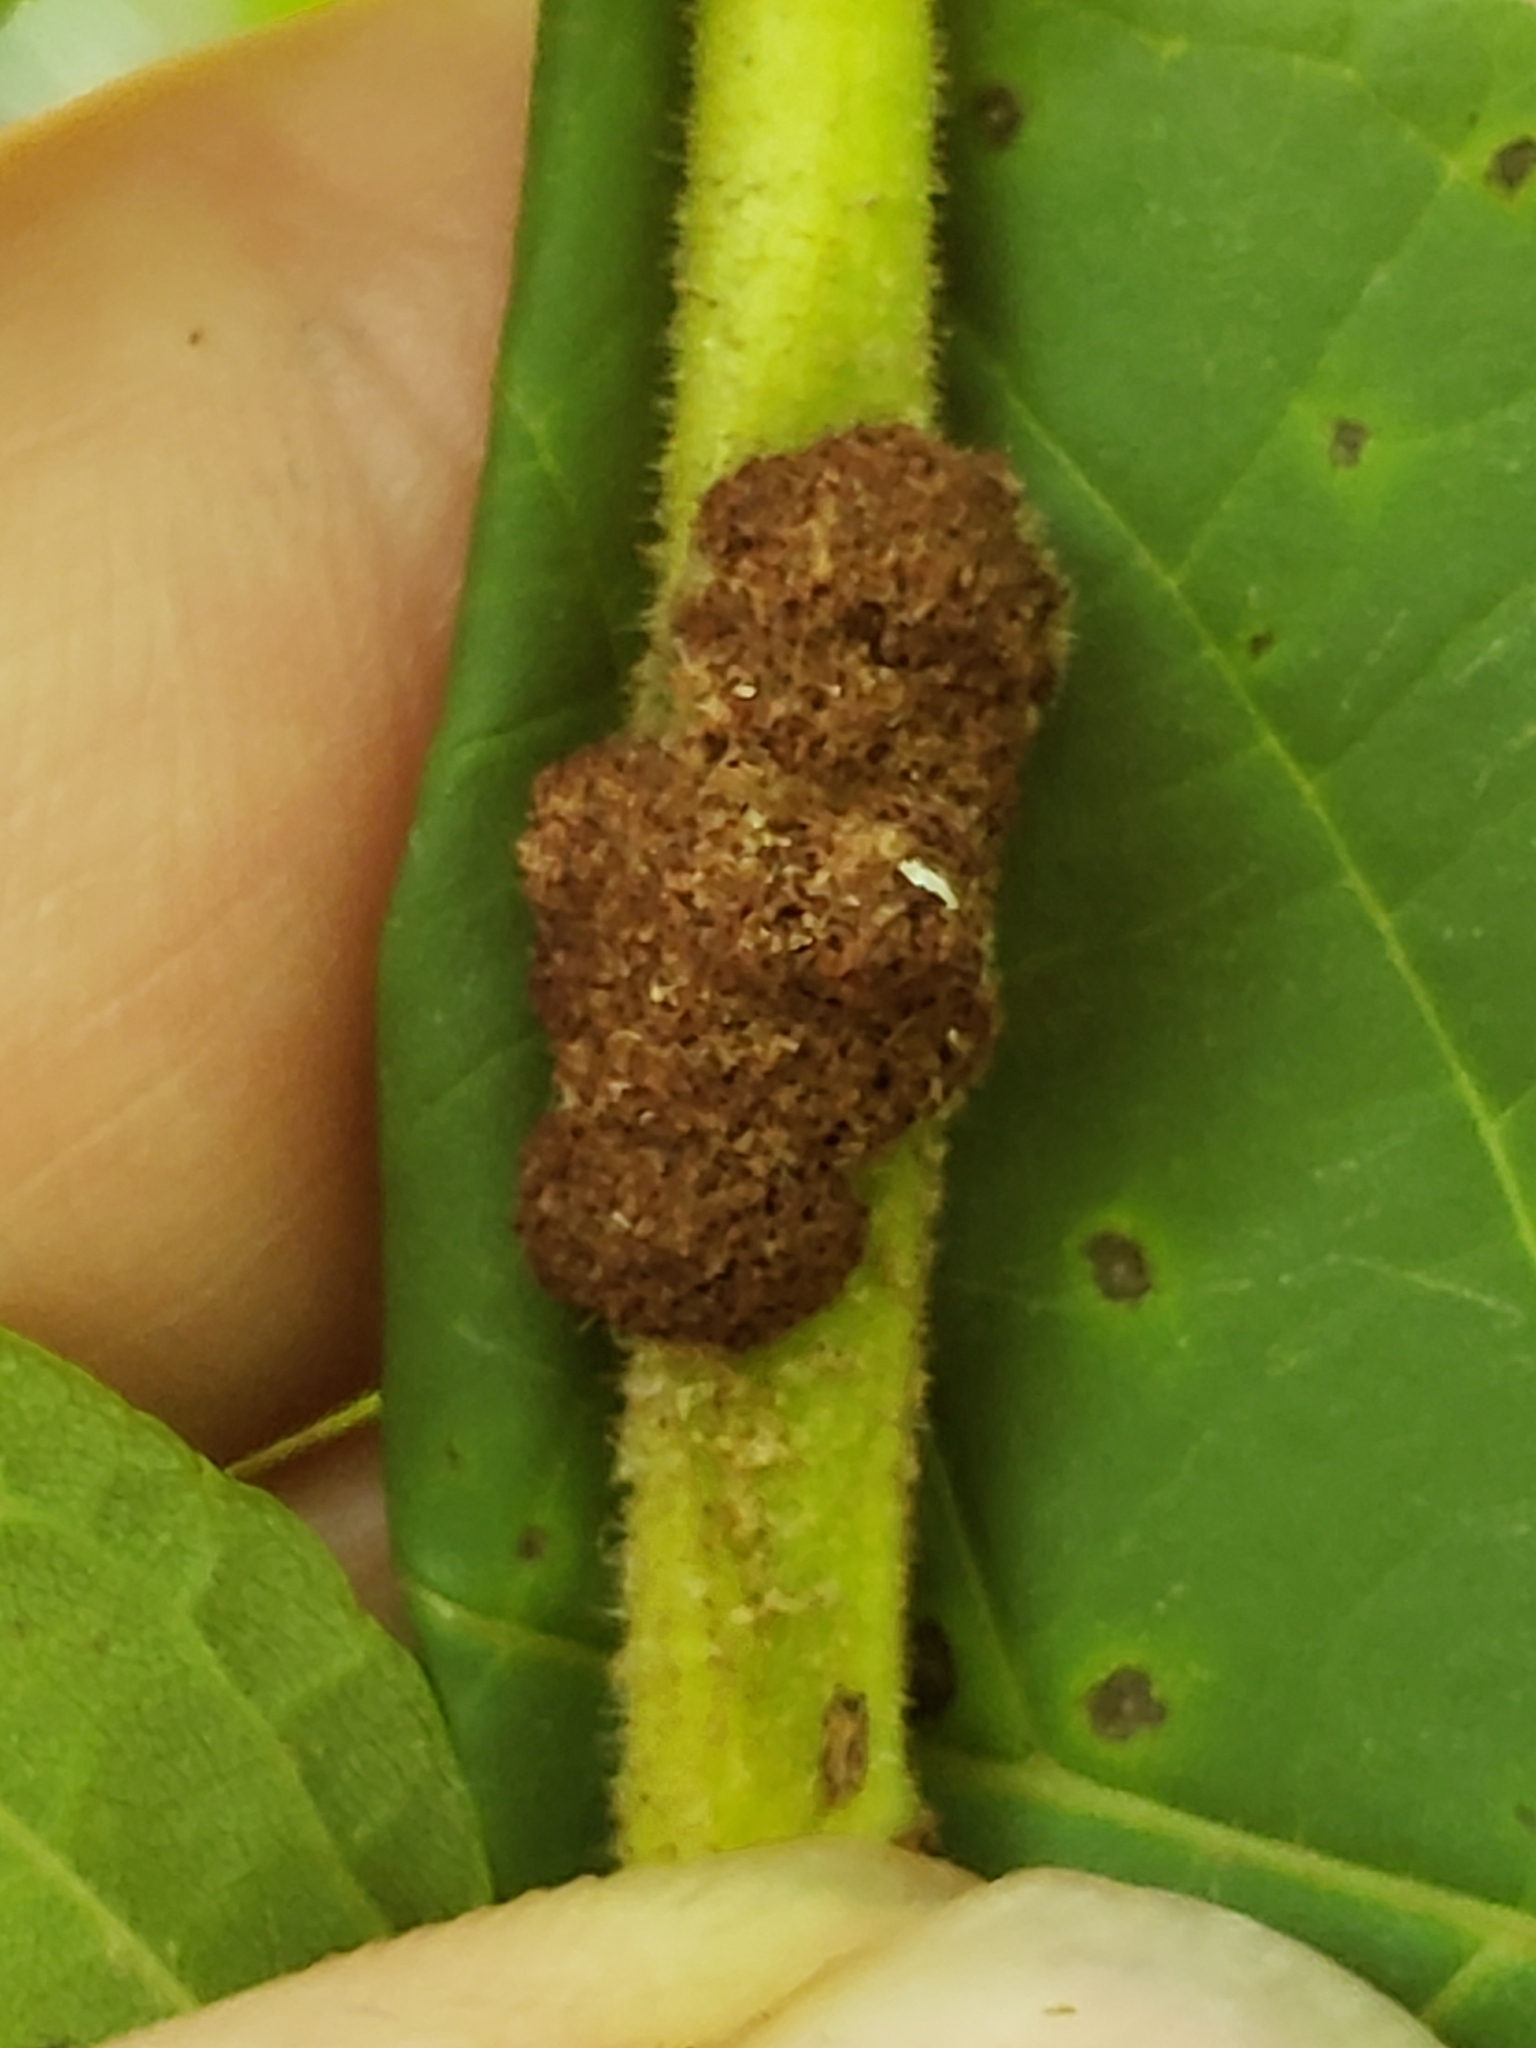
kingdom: Animalia
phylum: Arthropoda
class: Arachnida
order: Trombidiformes
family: Eriophyidae
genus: Aceria
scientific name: Aceria
